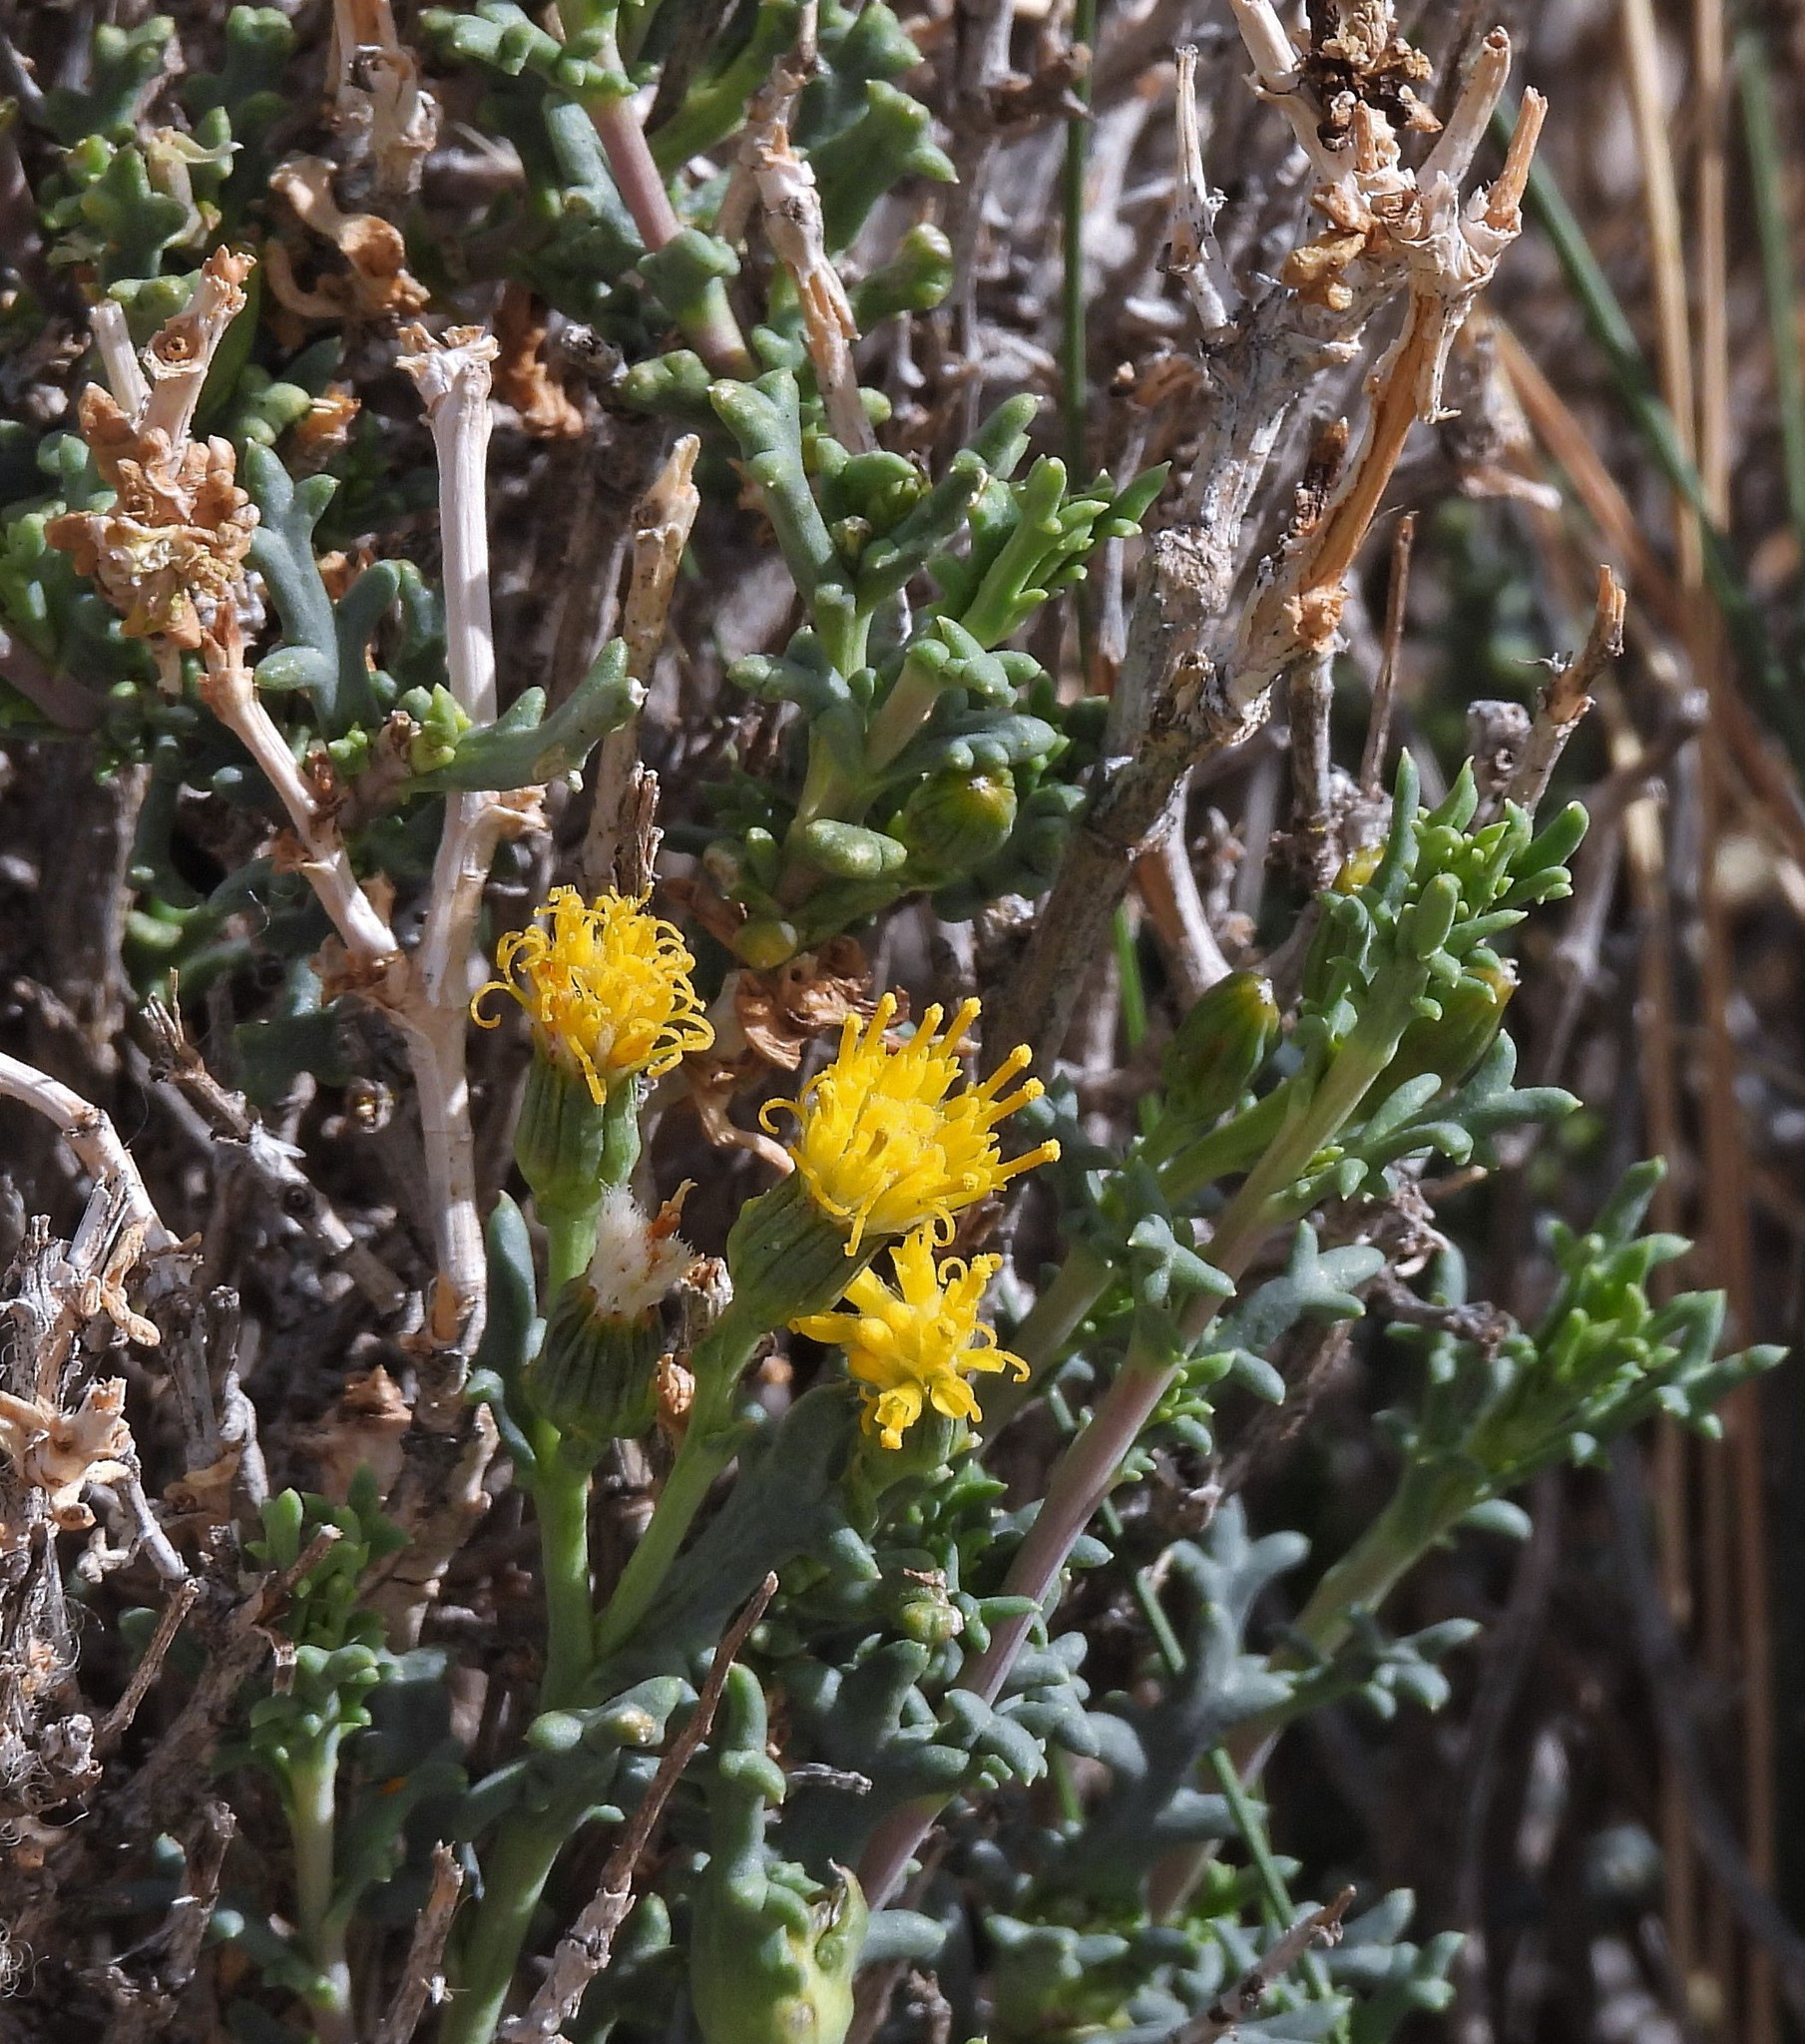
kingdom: Plantae
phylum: Tracheophyta
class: Magnoliopsida
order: Asterales
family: Asteraceae
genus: Senecio
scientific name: Senecio nutans
